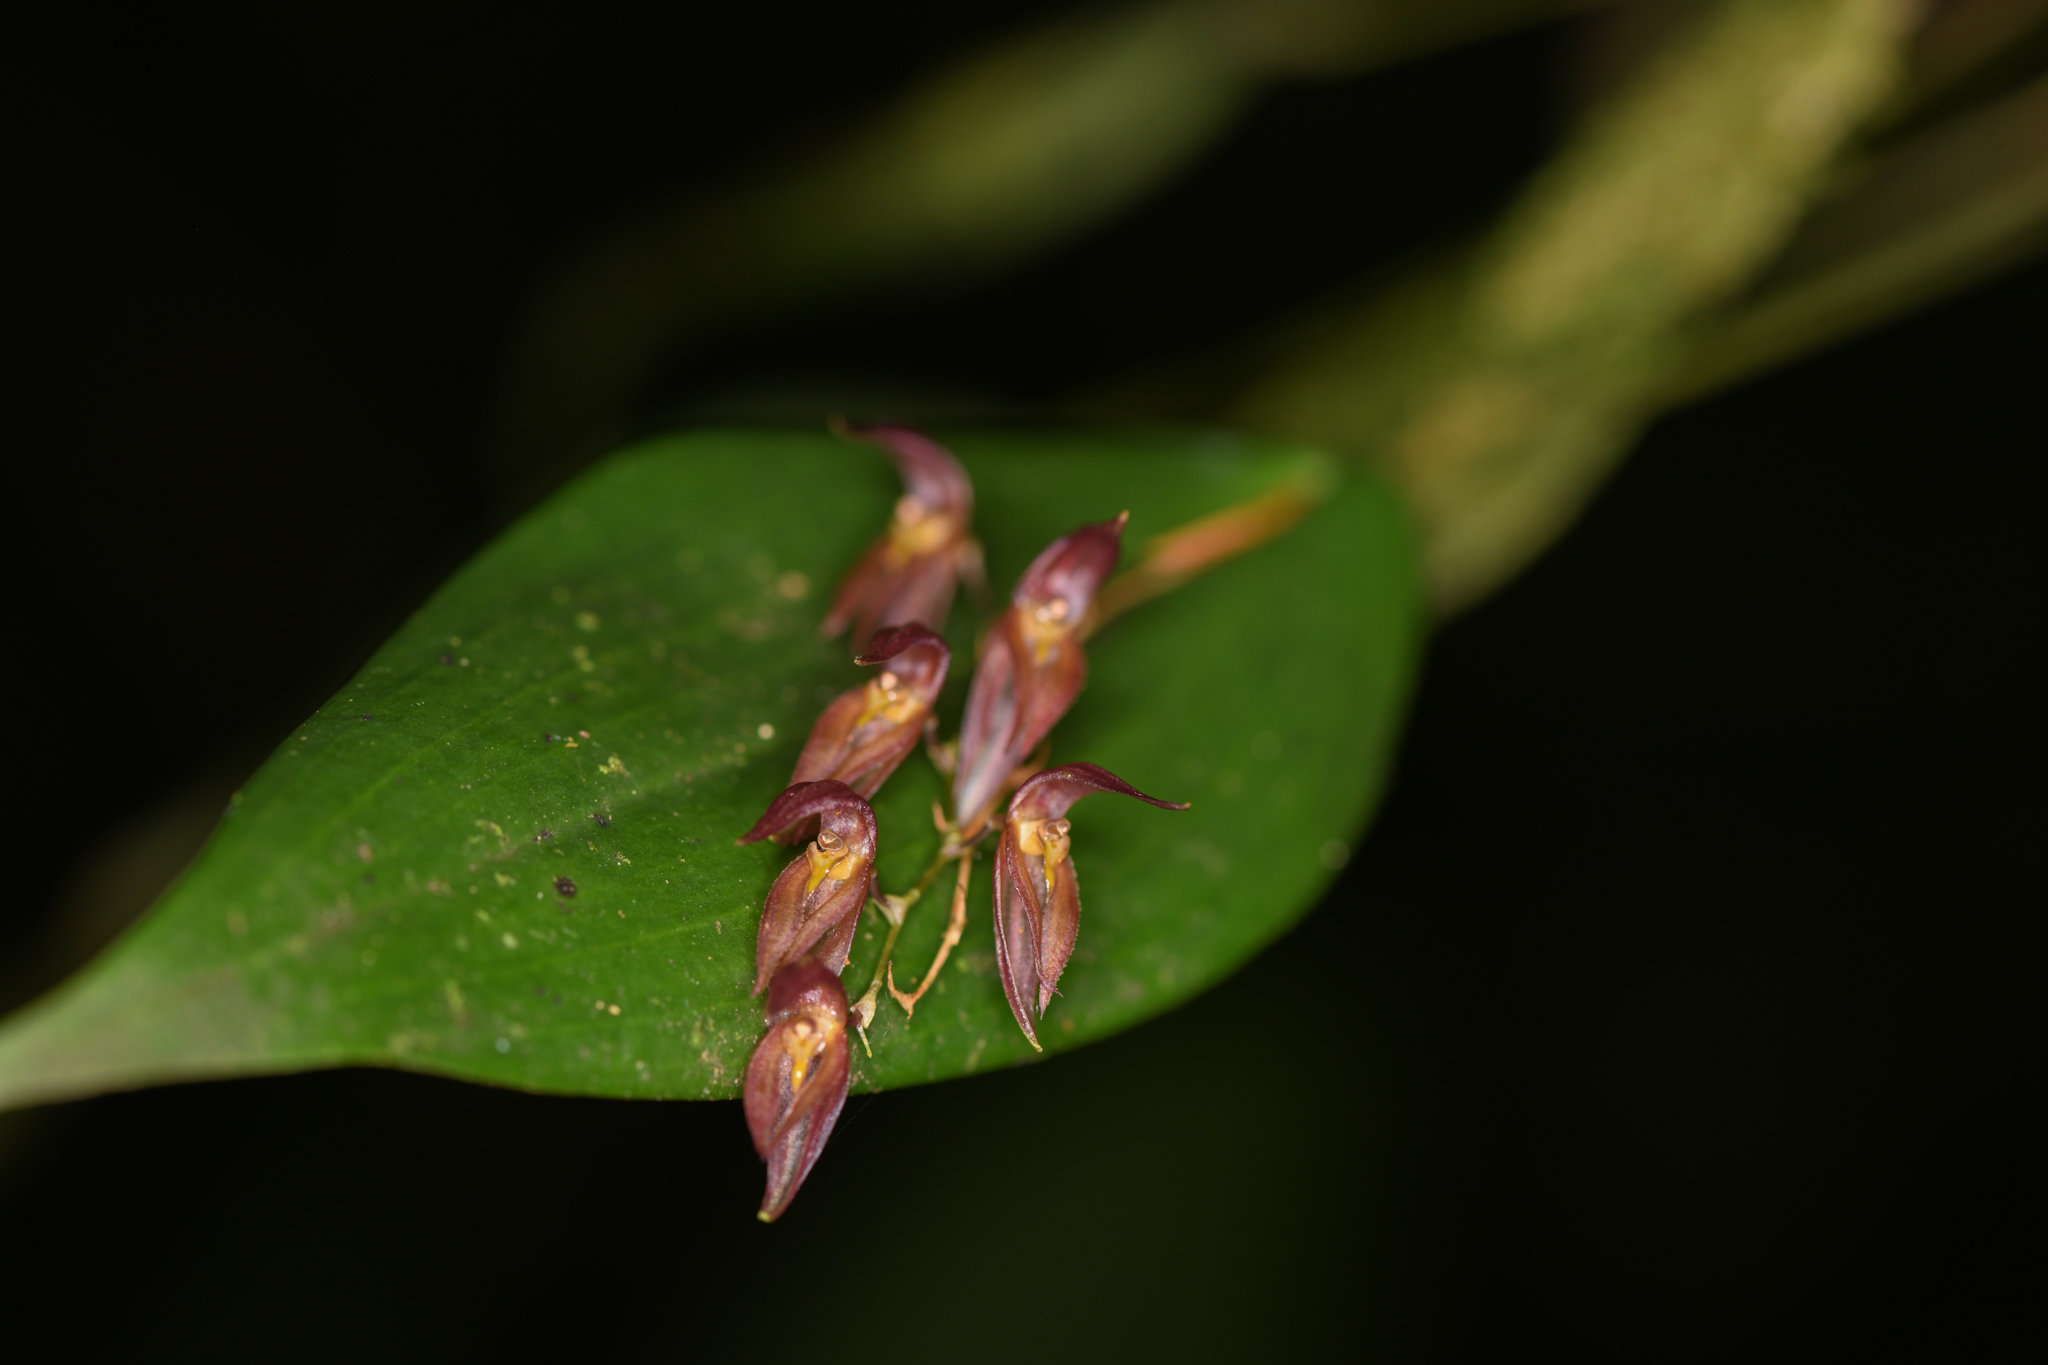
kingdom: Plantae
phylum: Tracheophyta
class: Liliopsida
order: Asparagales
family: Orchidaceae
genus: Pleurothallis
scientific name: Pleurothallis rowleei
